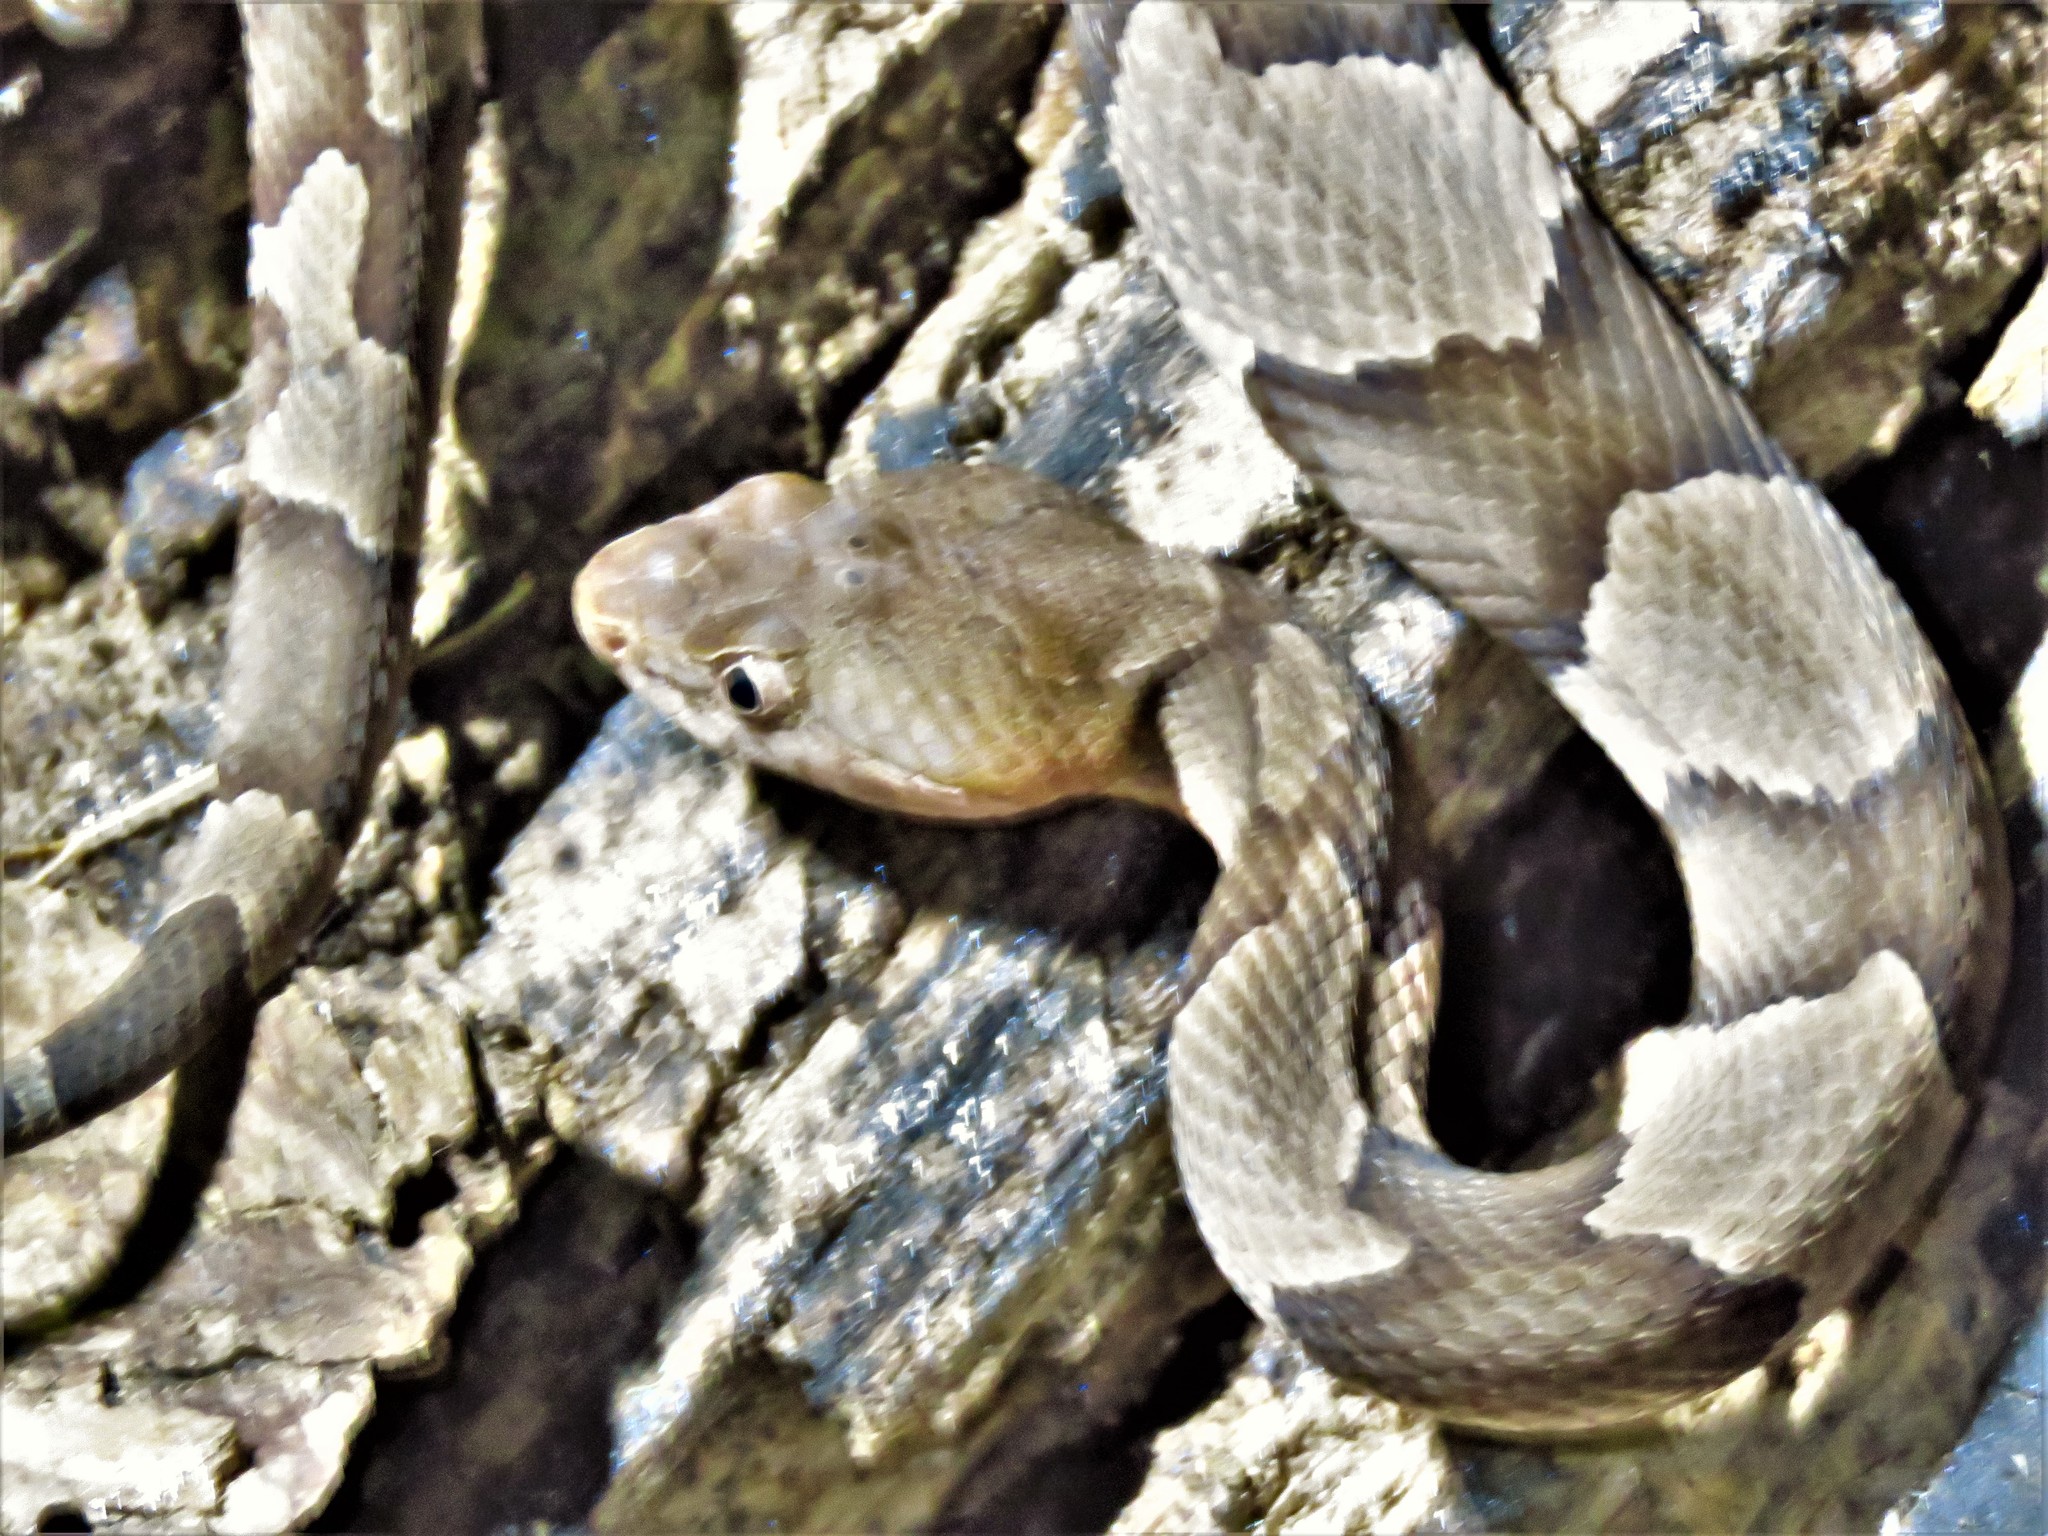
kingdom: Animalia
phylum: Chordata
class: Squamata
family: Viperidae
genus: Agkistrodon
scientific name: Agkistrodon laticinctus
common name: Broad-banded copperhead
